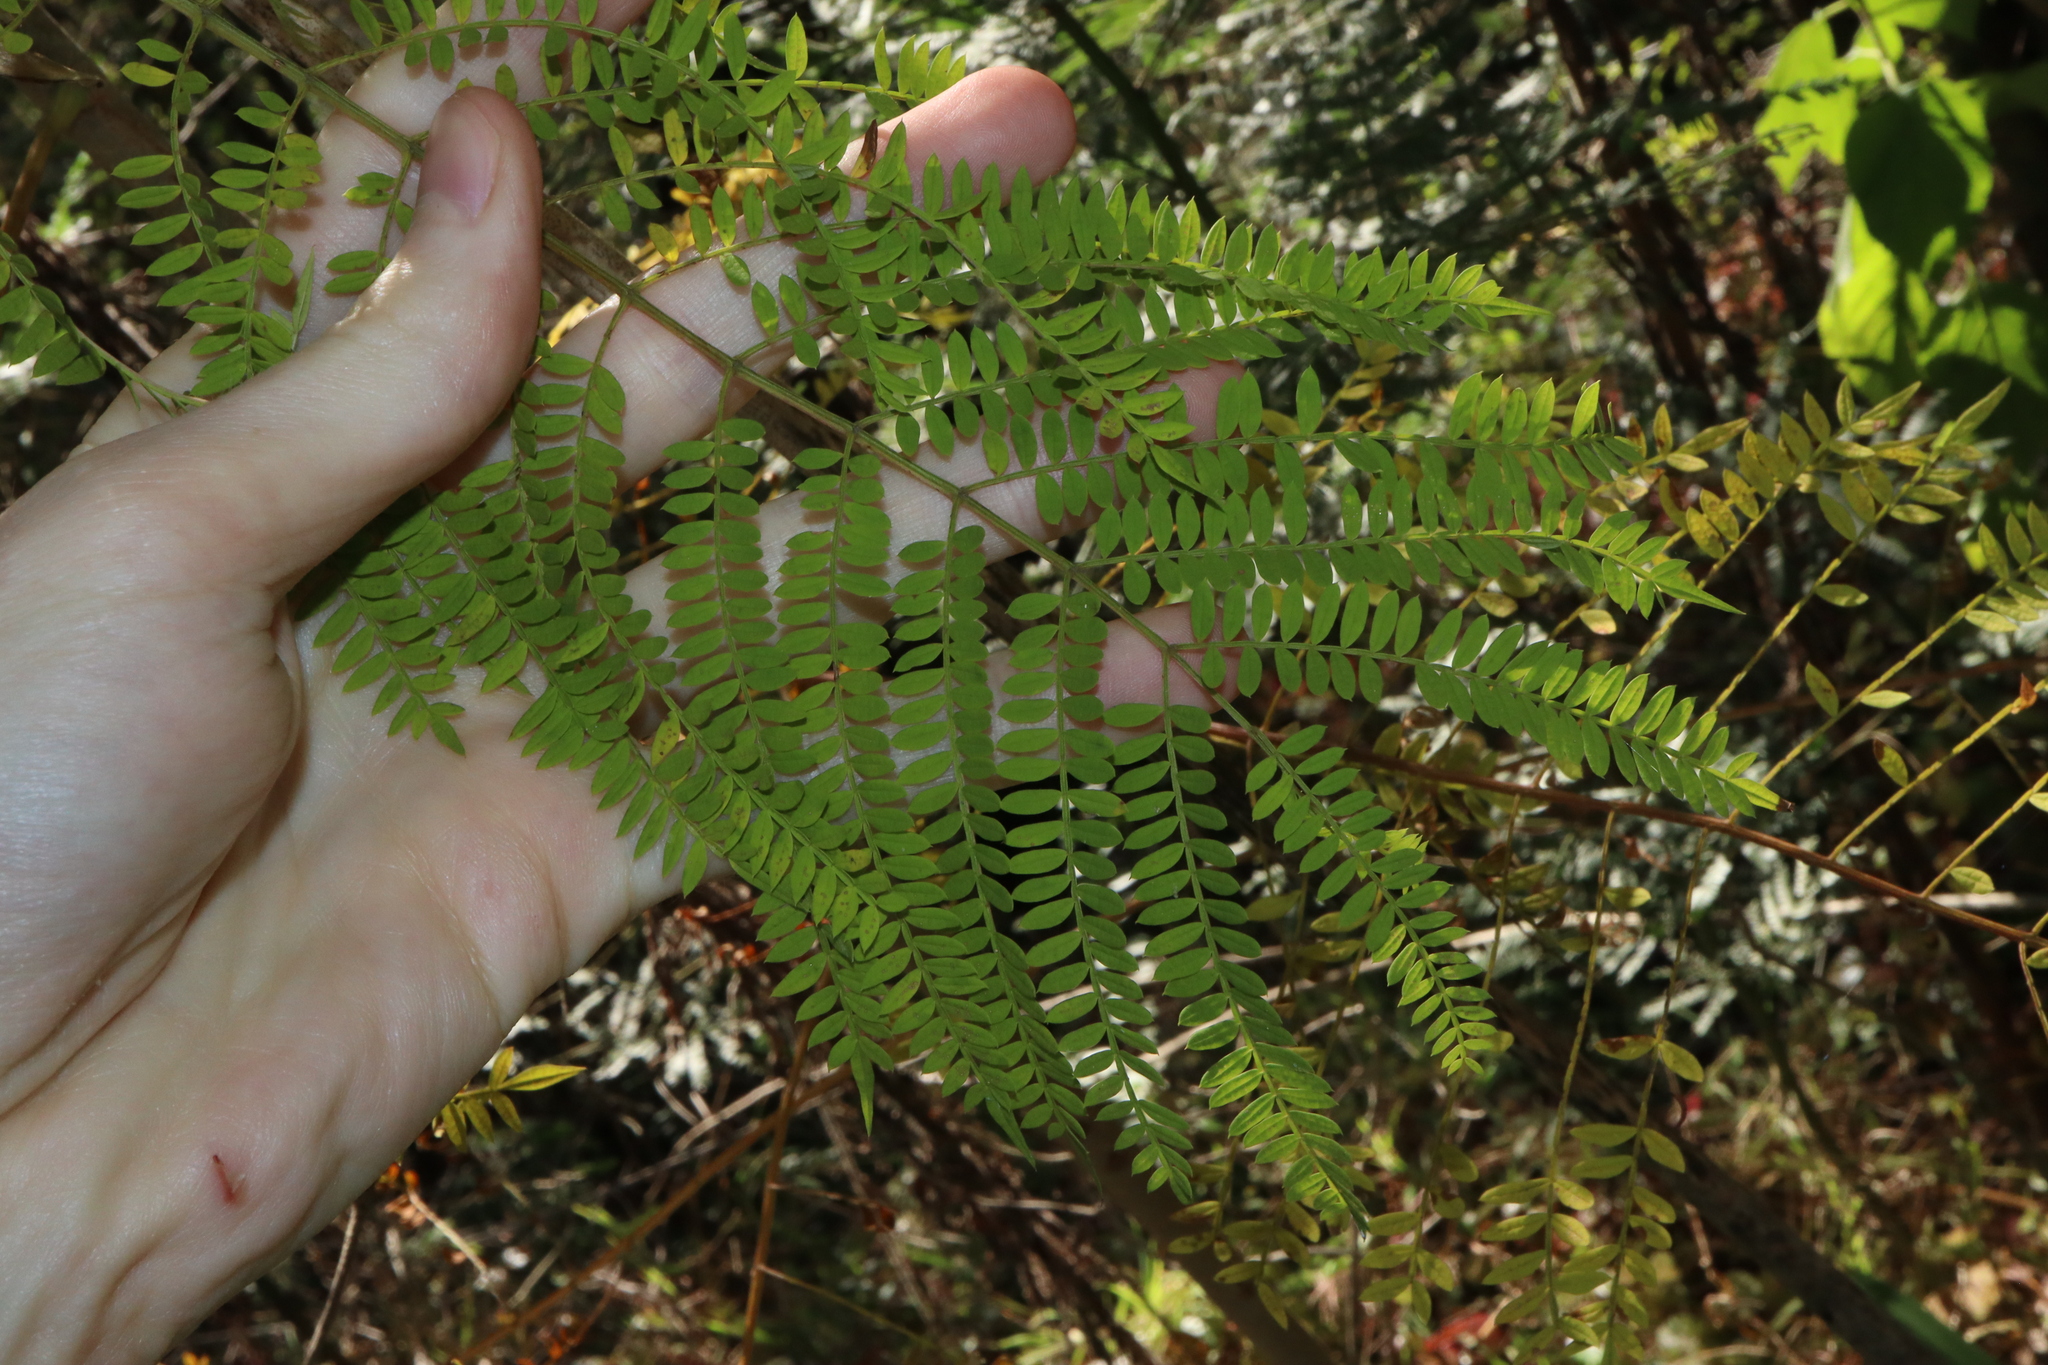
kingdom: Plantae
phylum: Tracheophyta
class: Magnoliopsida
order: Lamiales
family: Bignoniaceae
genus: Jacaranda
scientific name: Jacaranda mimosifolia
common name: Black poui
